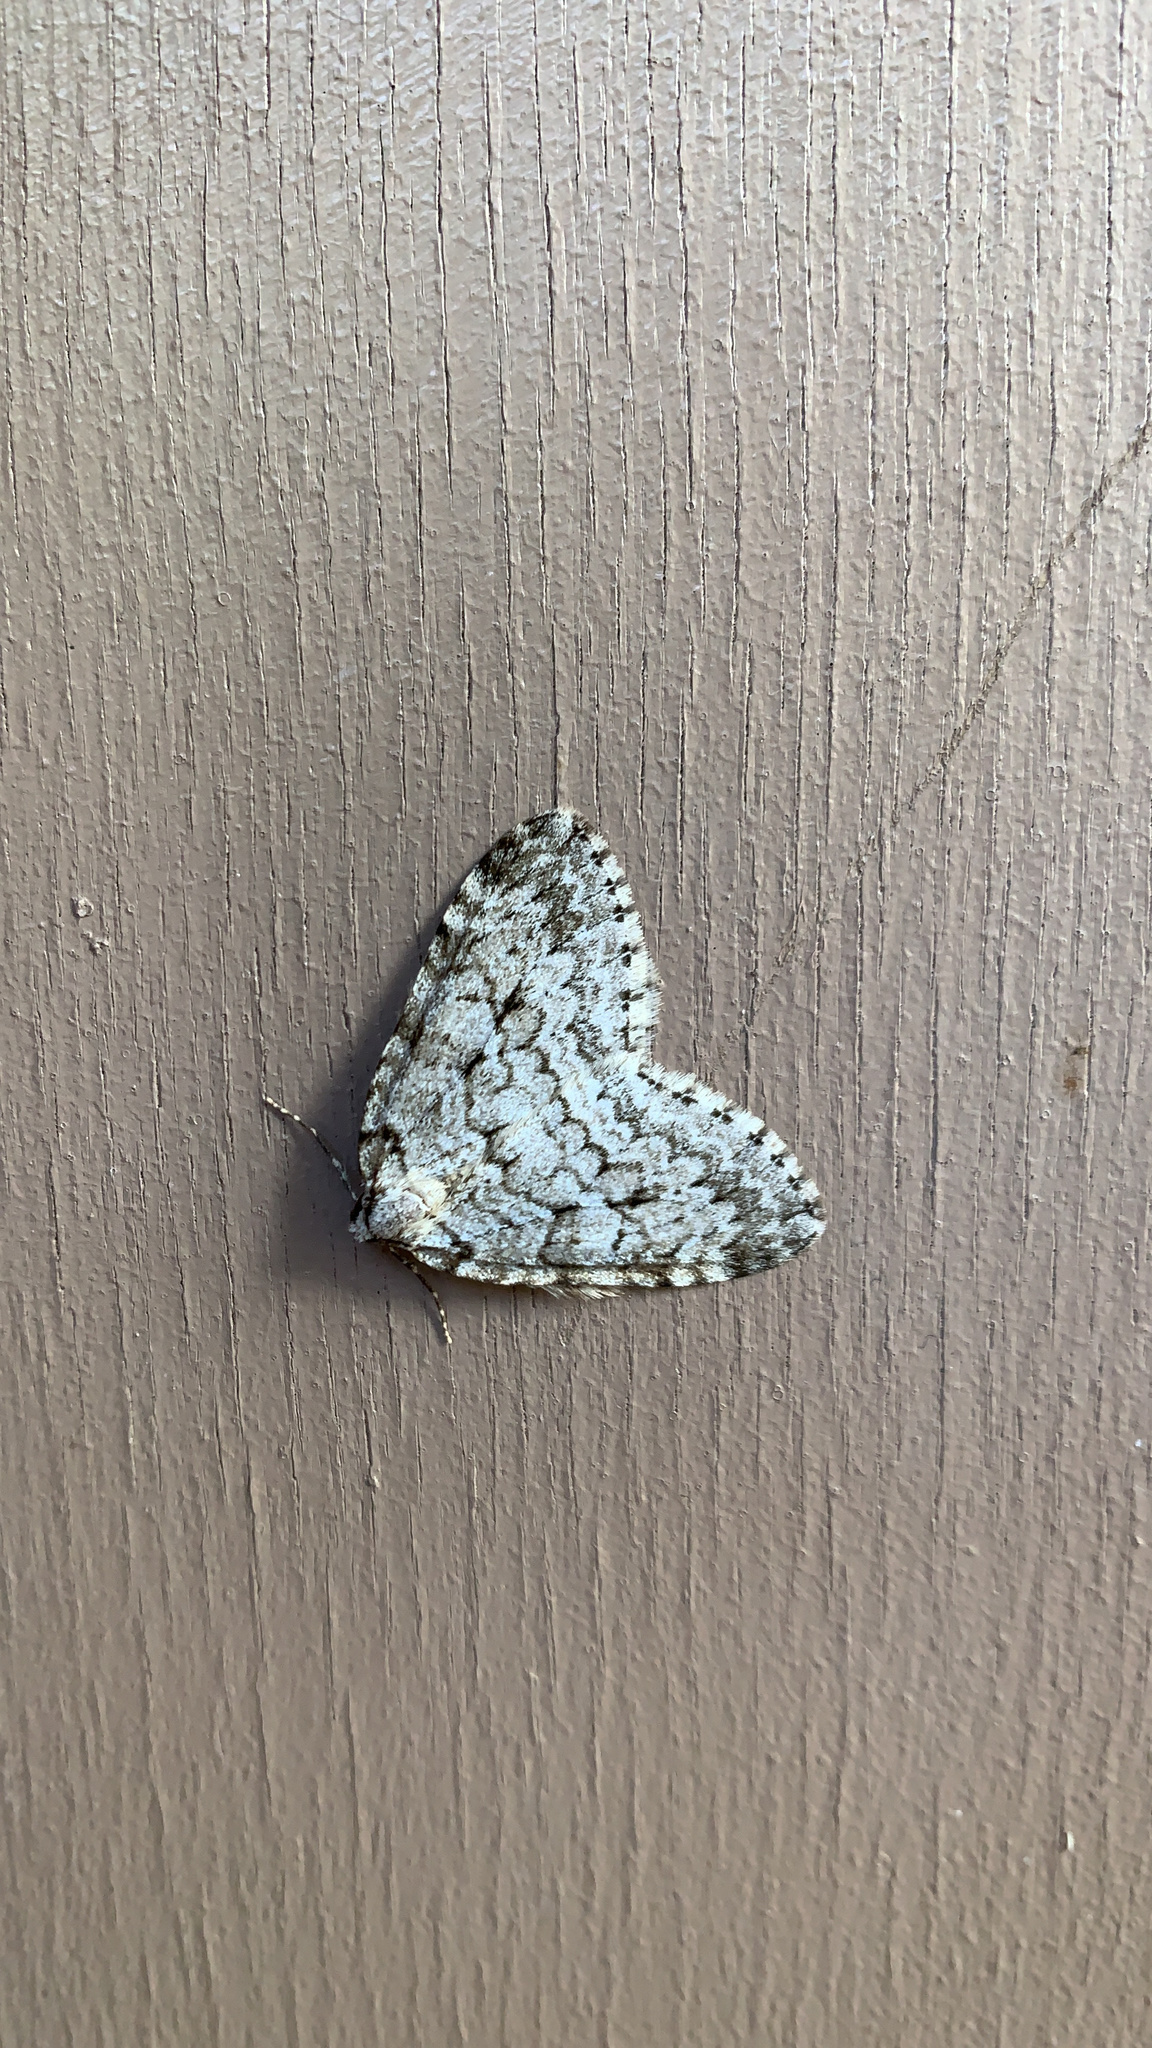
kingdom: Animalia
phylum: Arthropoda
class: Insecta
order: Lepidoptera
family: Geometridae
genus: Epirrita
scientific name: Epirrita autumnata
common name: Autumnal moth
